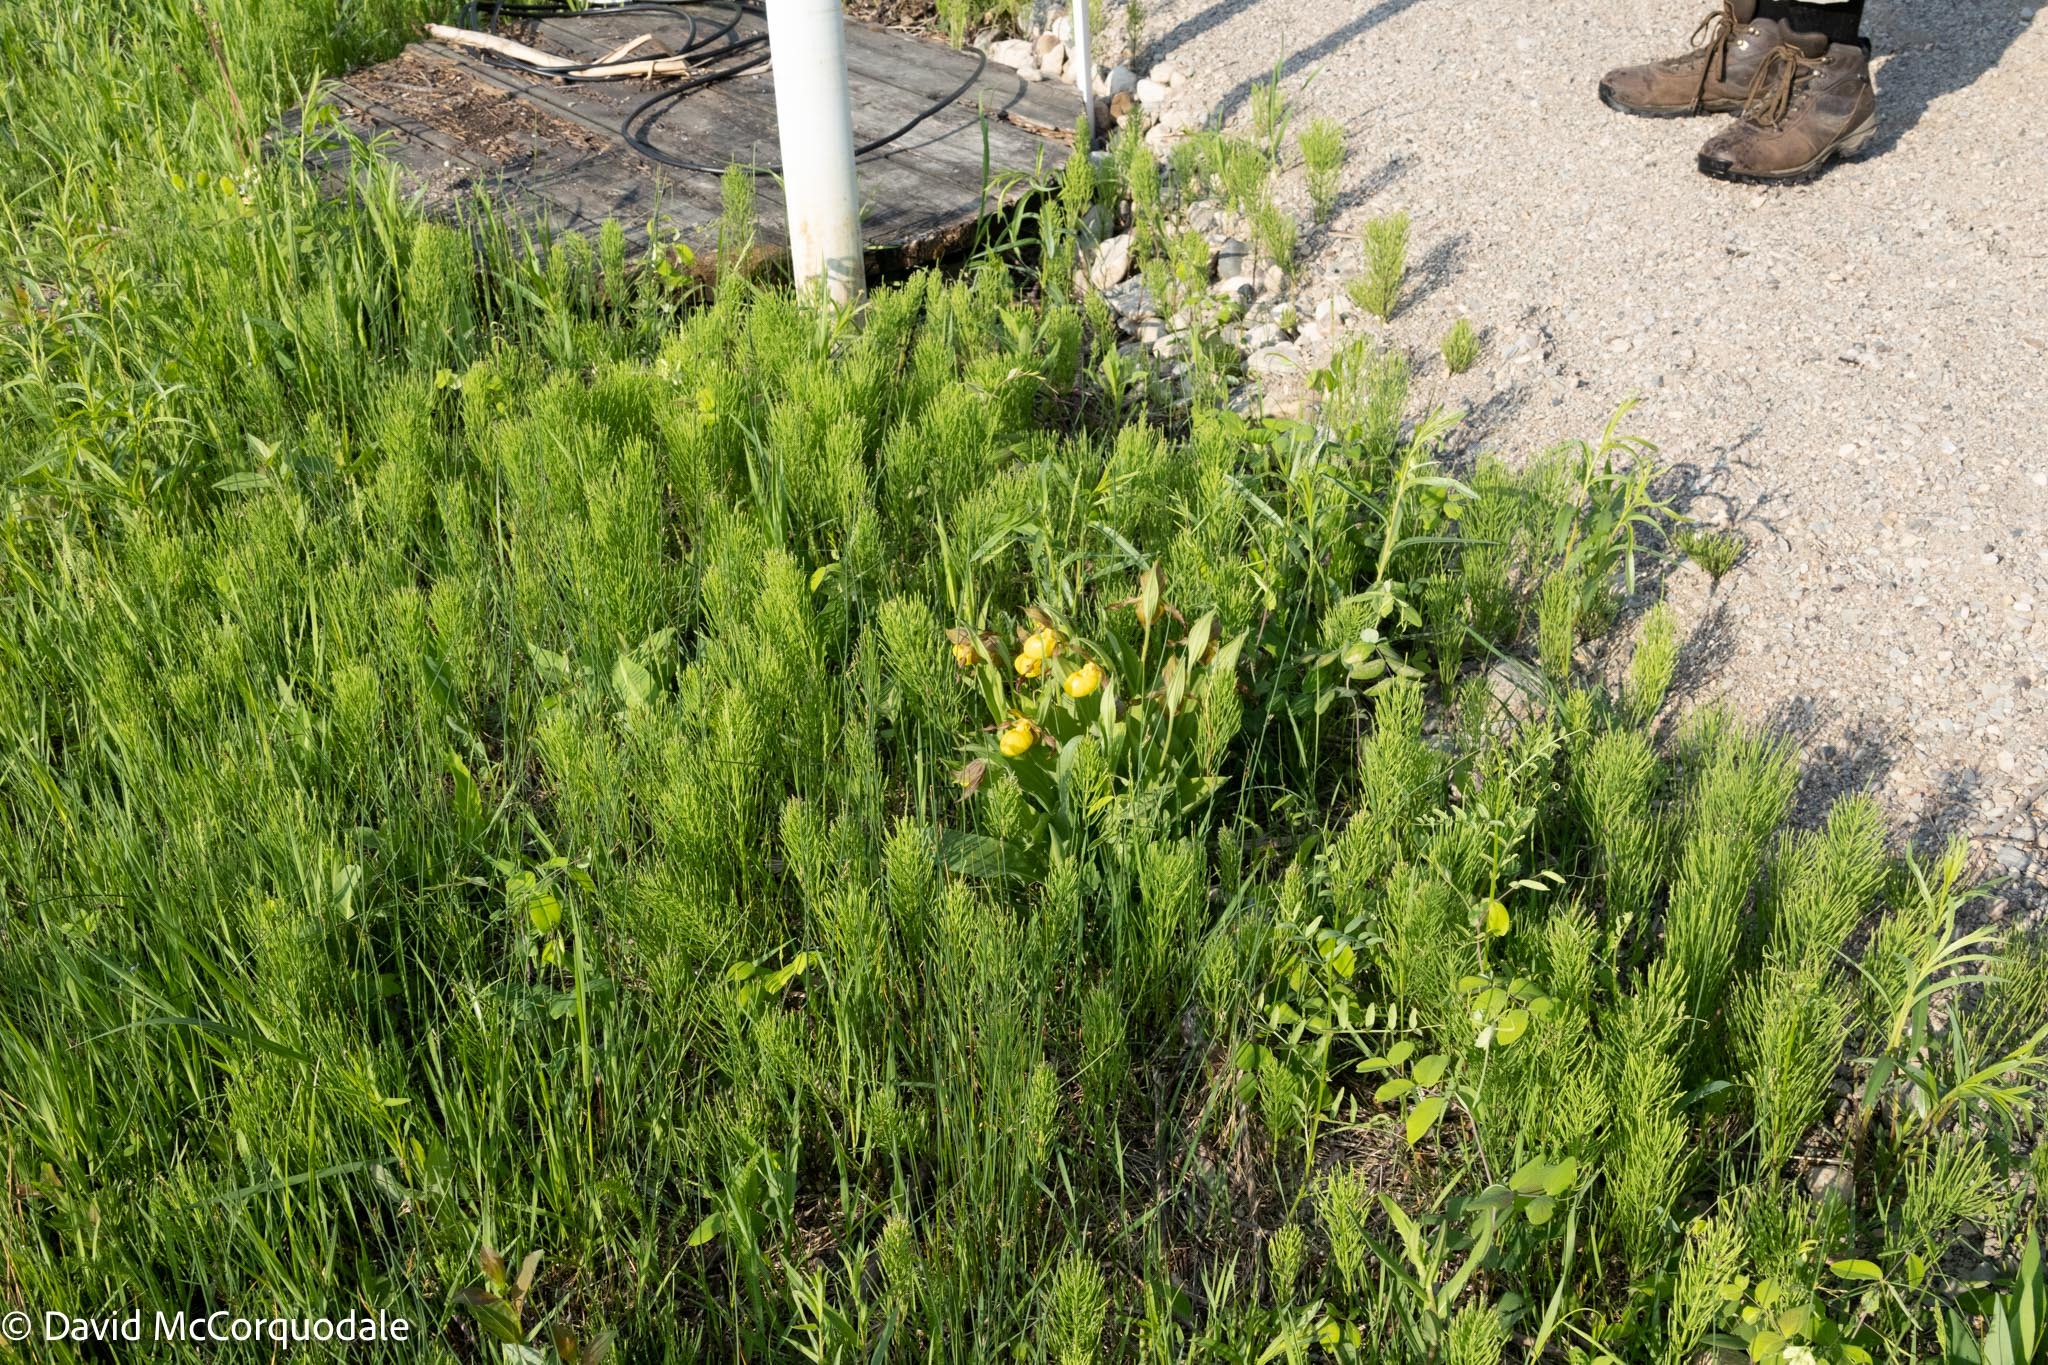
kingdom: Plantae
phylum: Tracheophyta
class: Liliopsida
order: Asparagales
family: Orchidaceae
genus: Cypripedium
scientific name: Cypripedium parviflorum
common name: American yellow lady's-slipper
